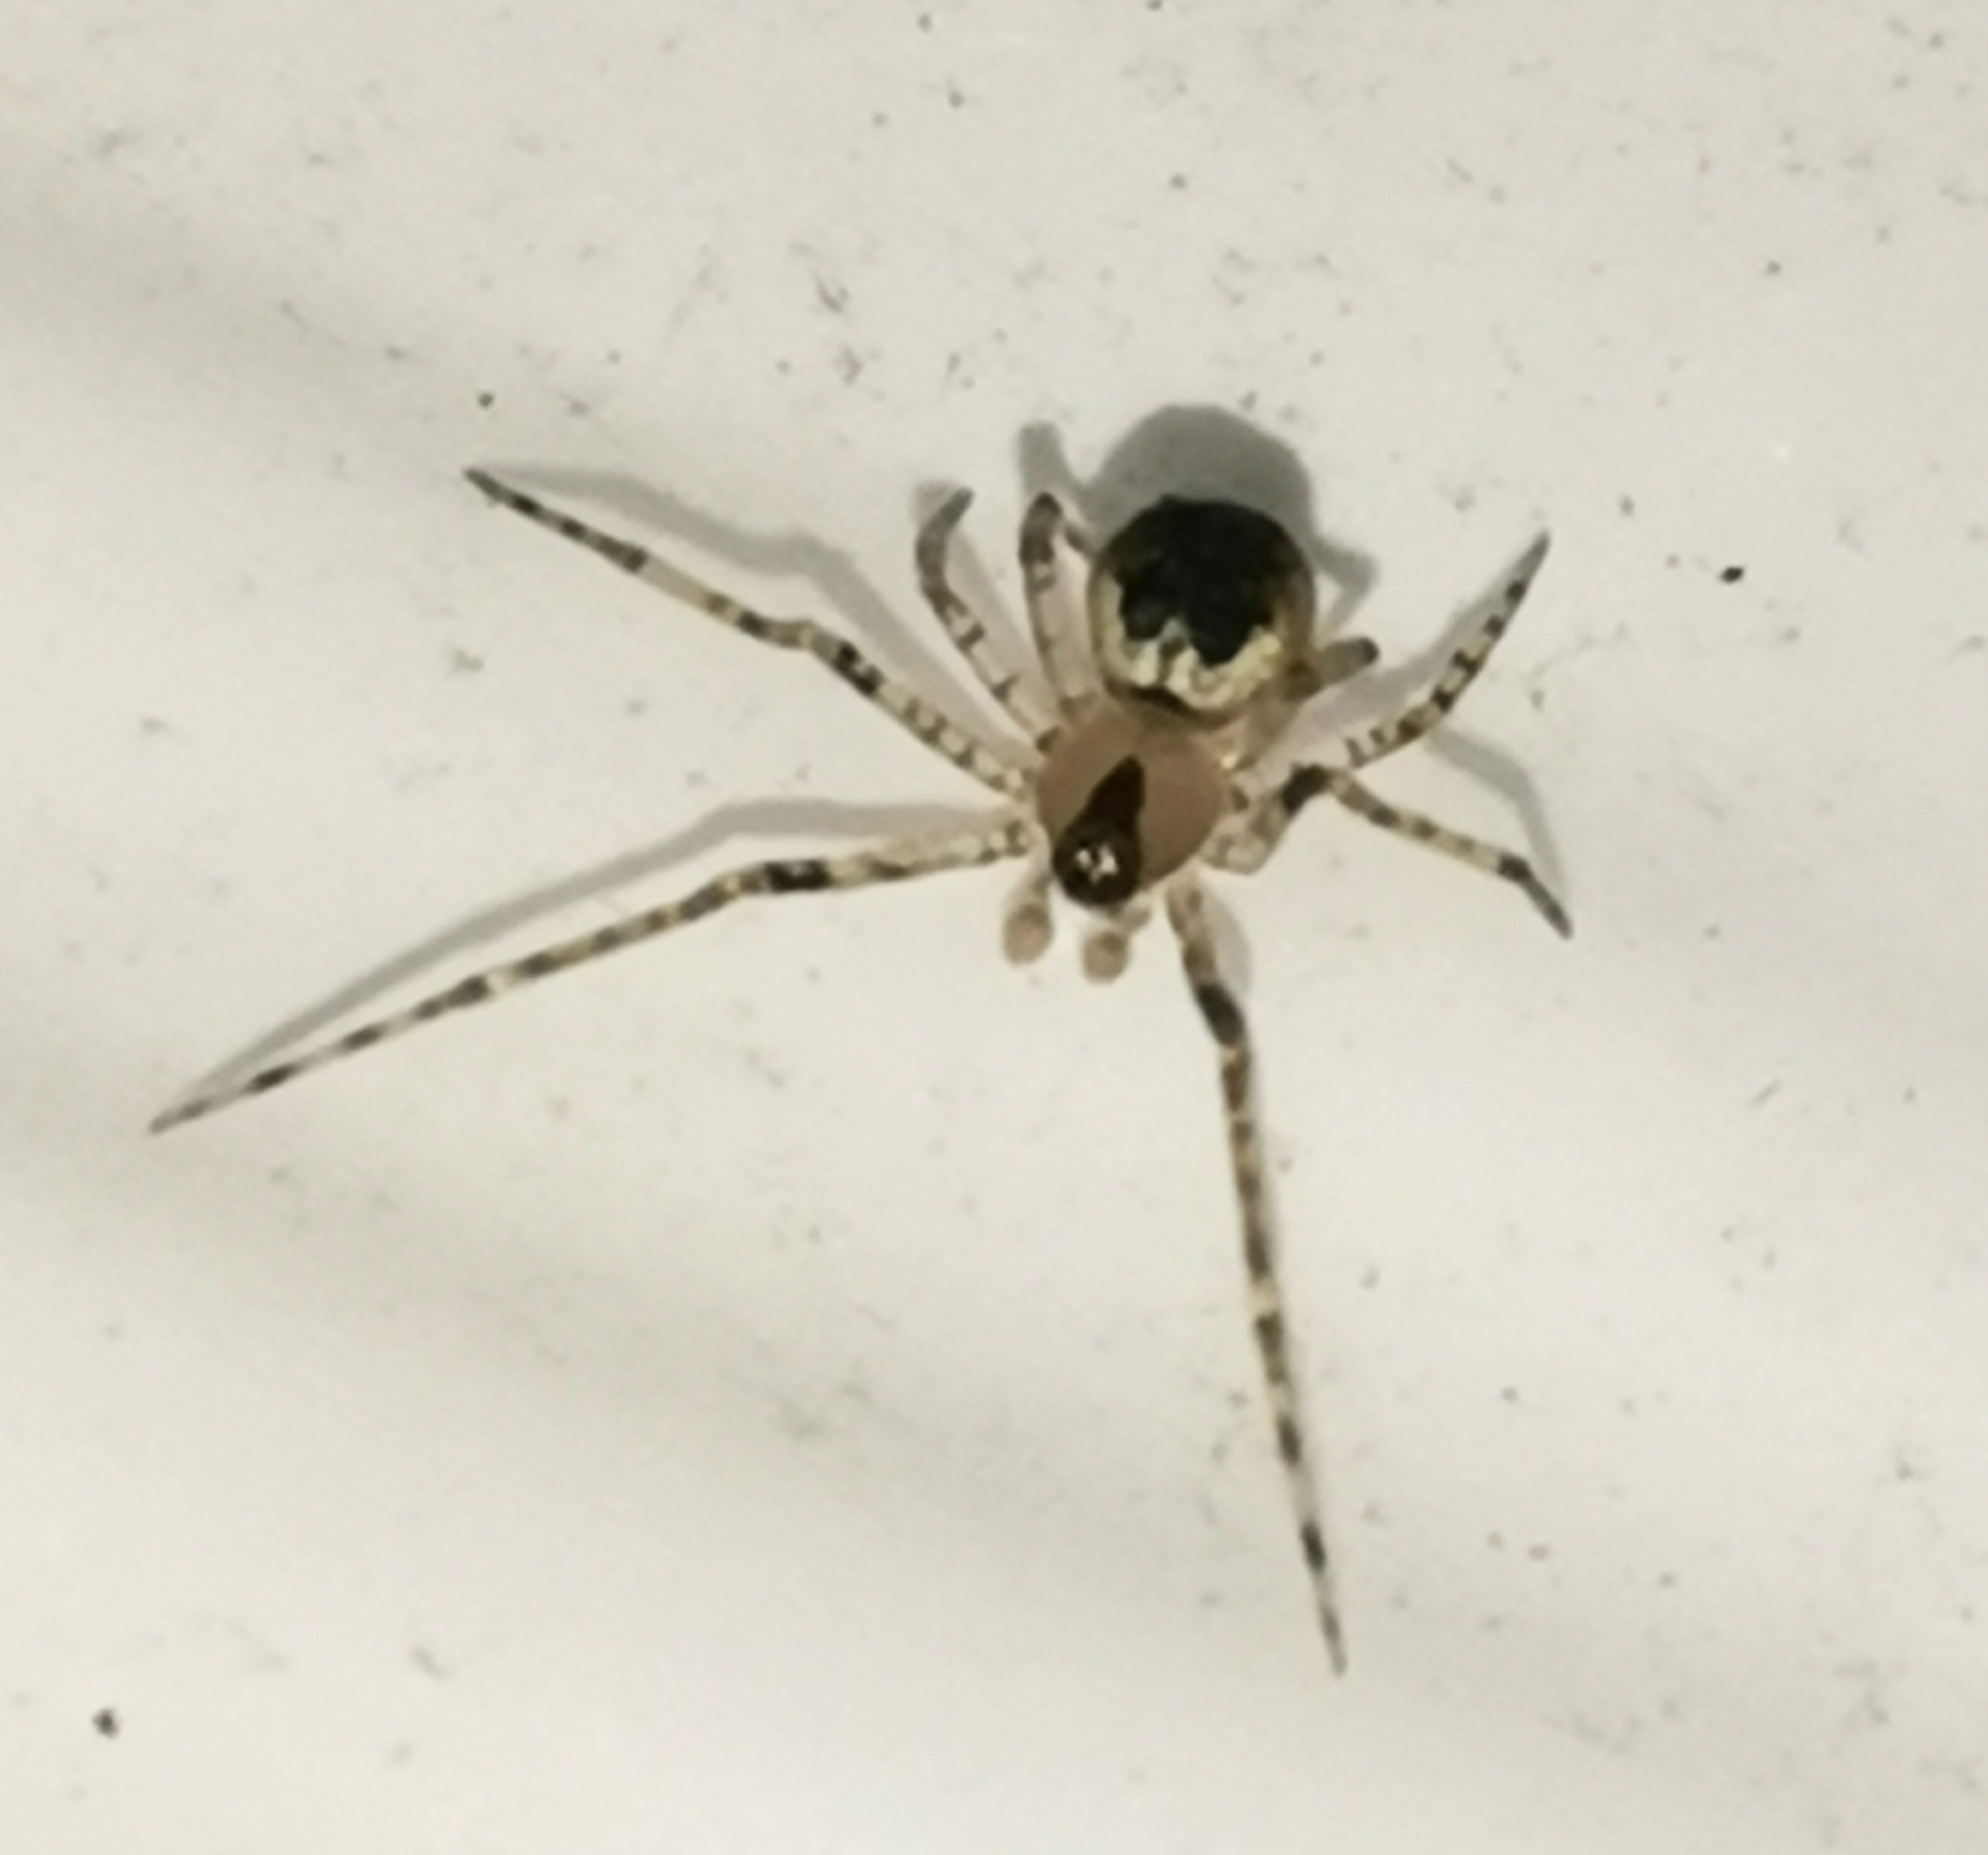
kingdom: Animalia
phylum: Arthropoda
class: Arachnida
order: Araneae
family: Theridiidae
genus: Platnickina
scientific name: Platnickina tincta
